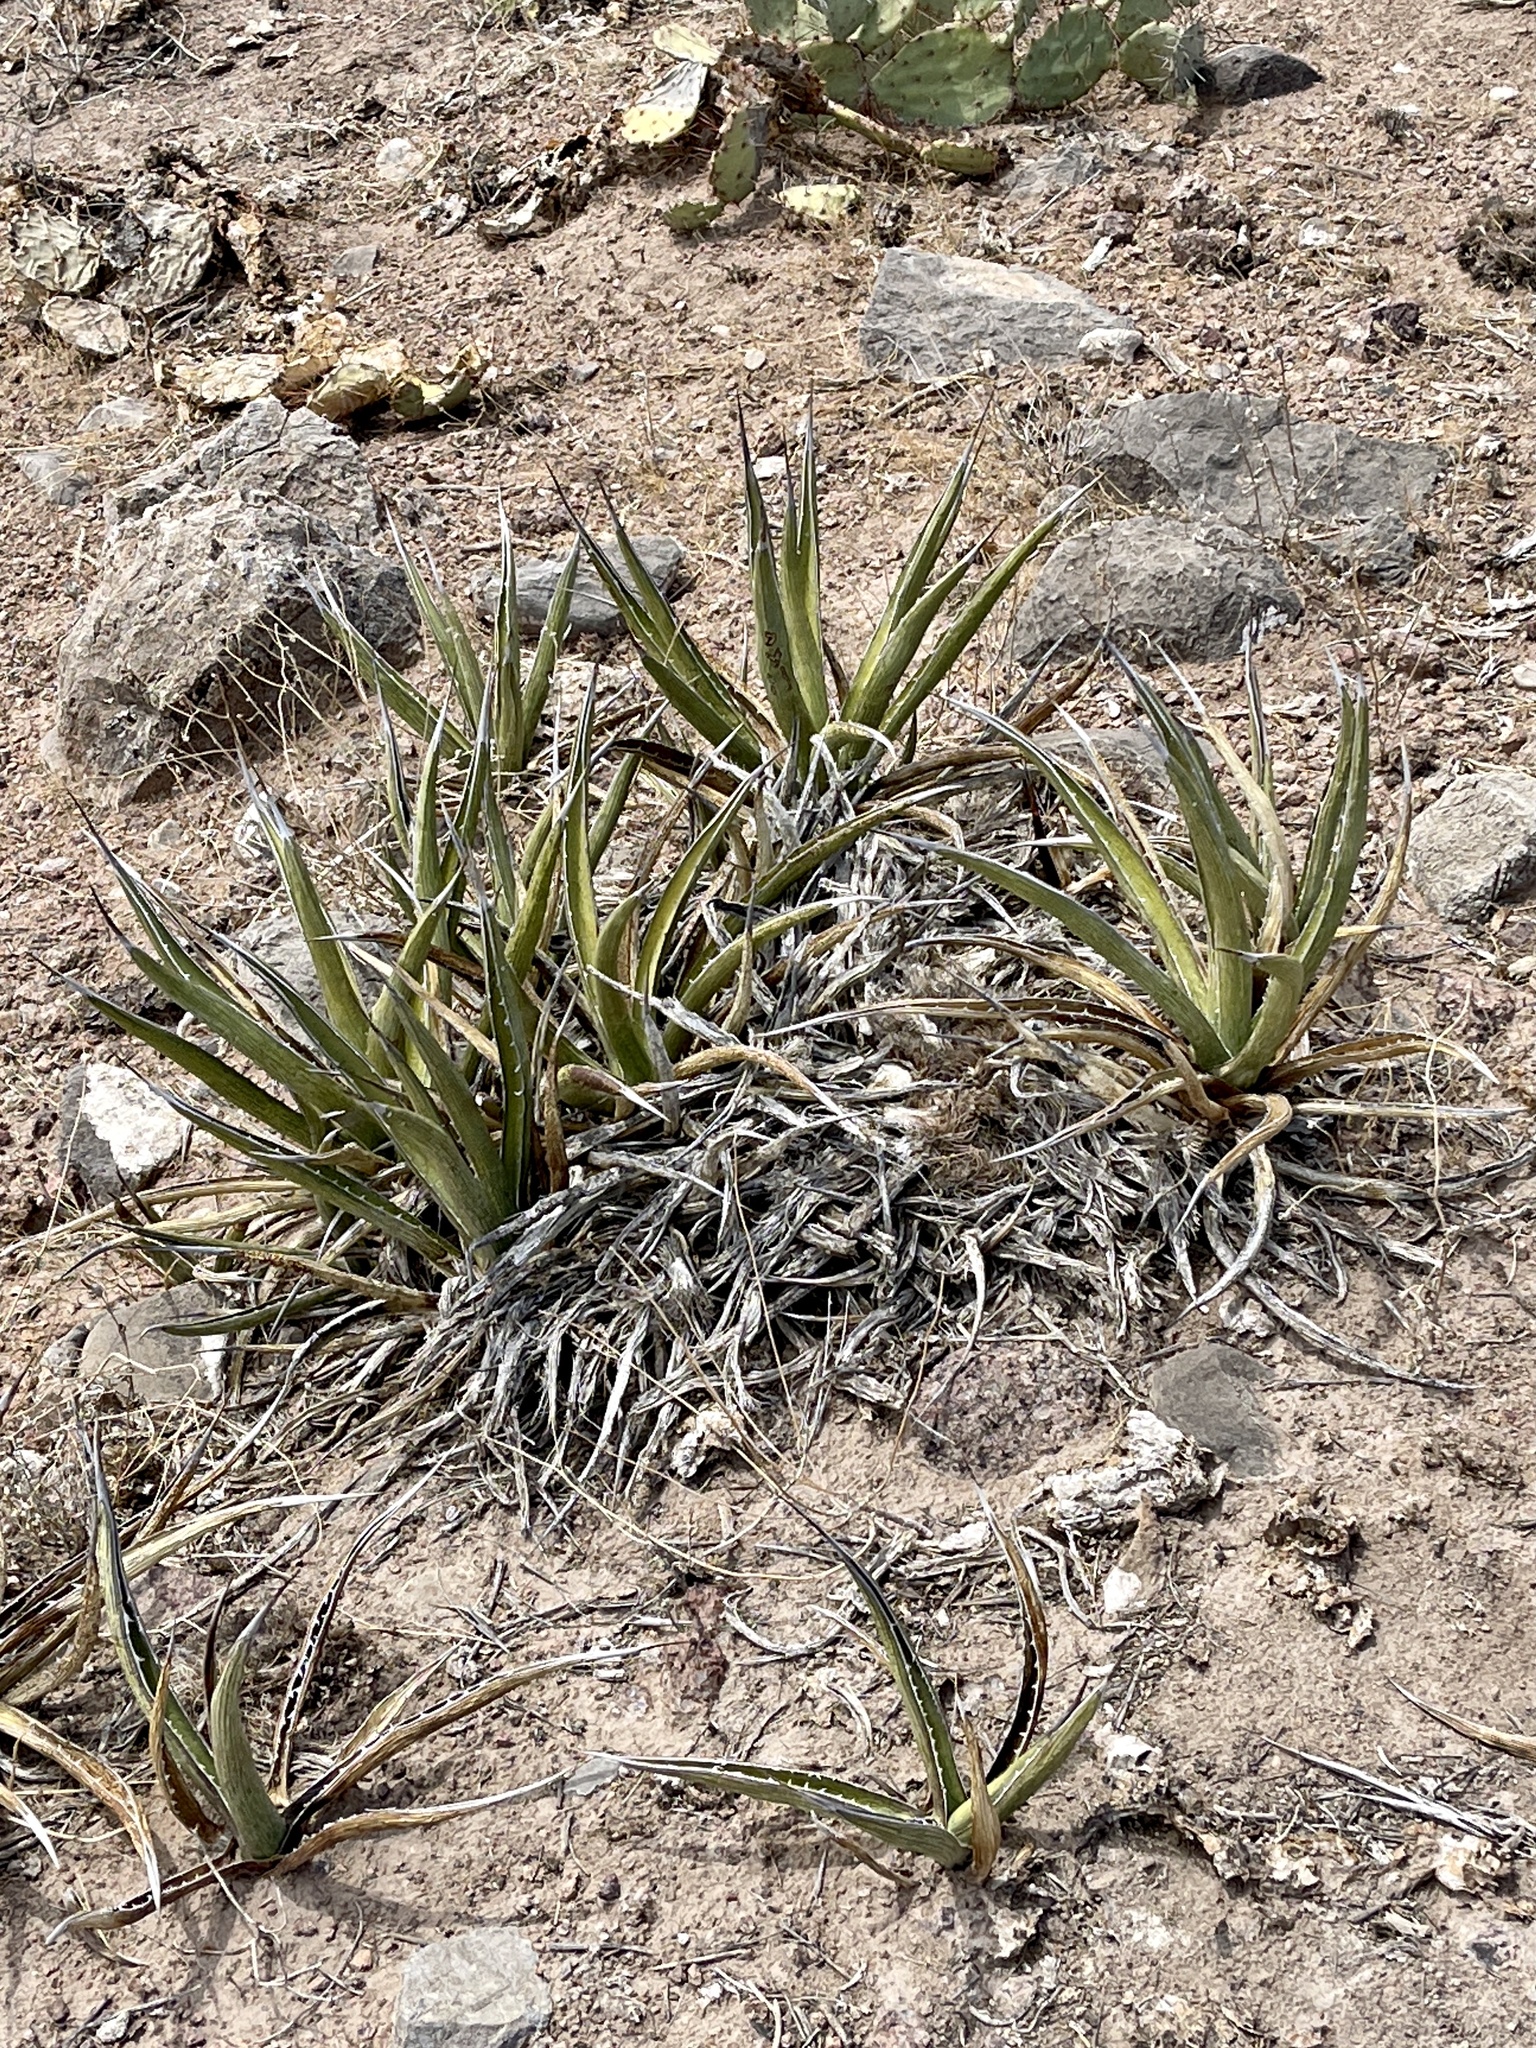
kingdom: Plantae
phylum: Tracheophyta
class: Liliopsida
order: Asparagales
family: Asparagaceae
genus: Agave
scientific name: Agave lechuguilla
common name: Lecheguilla agave
